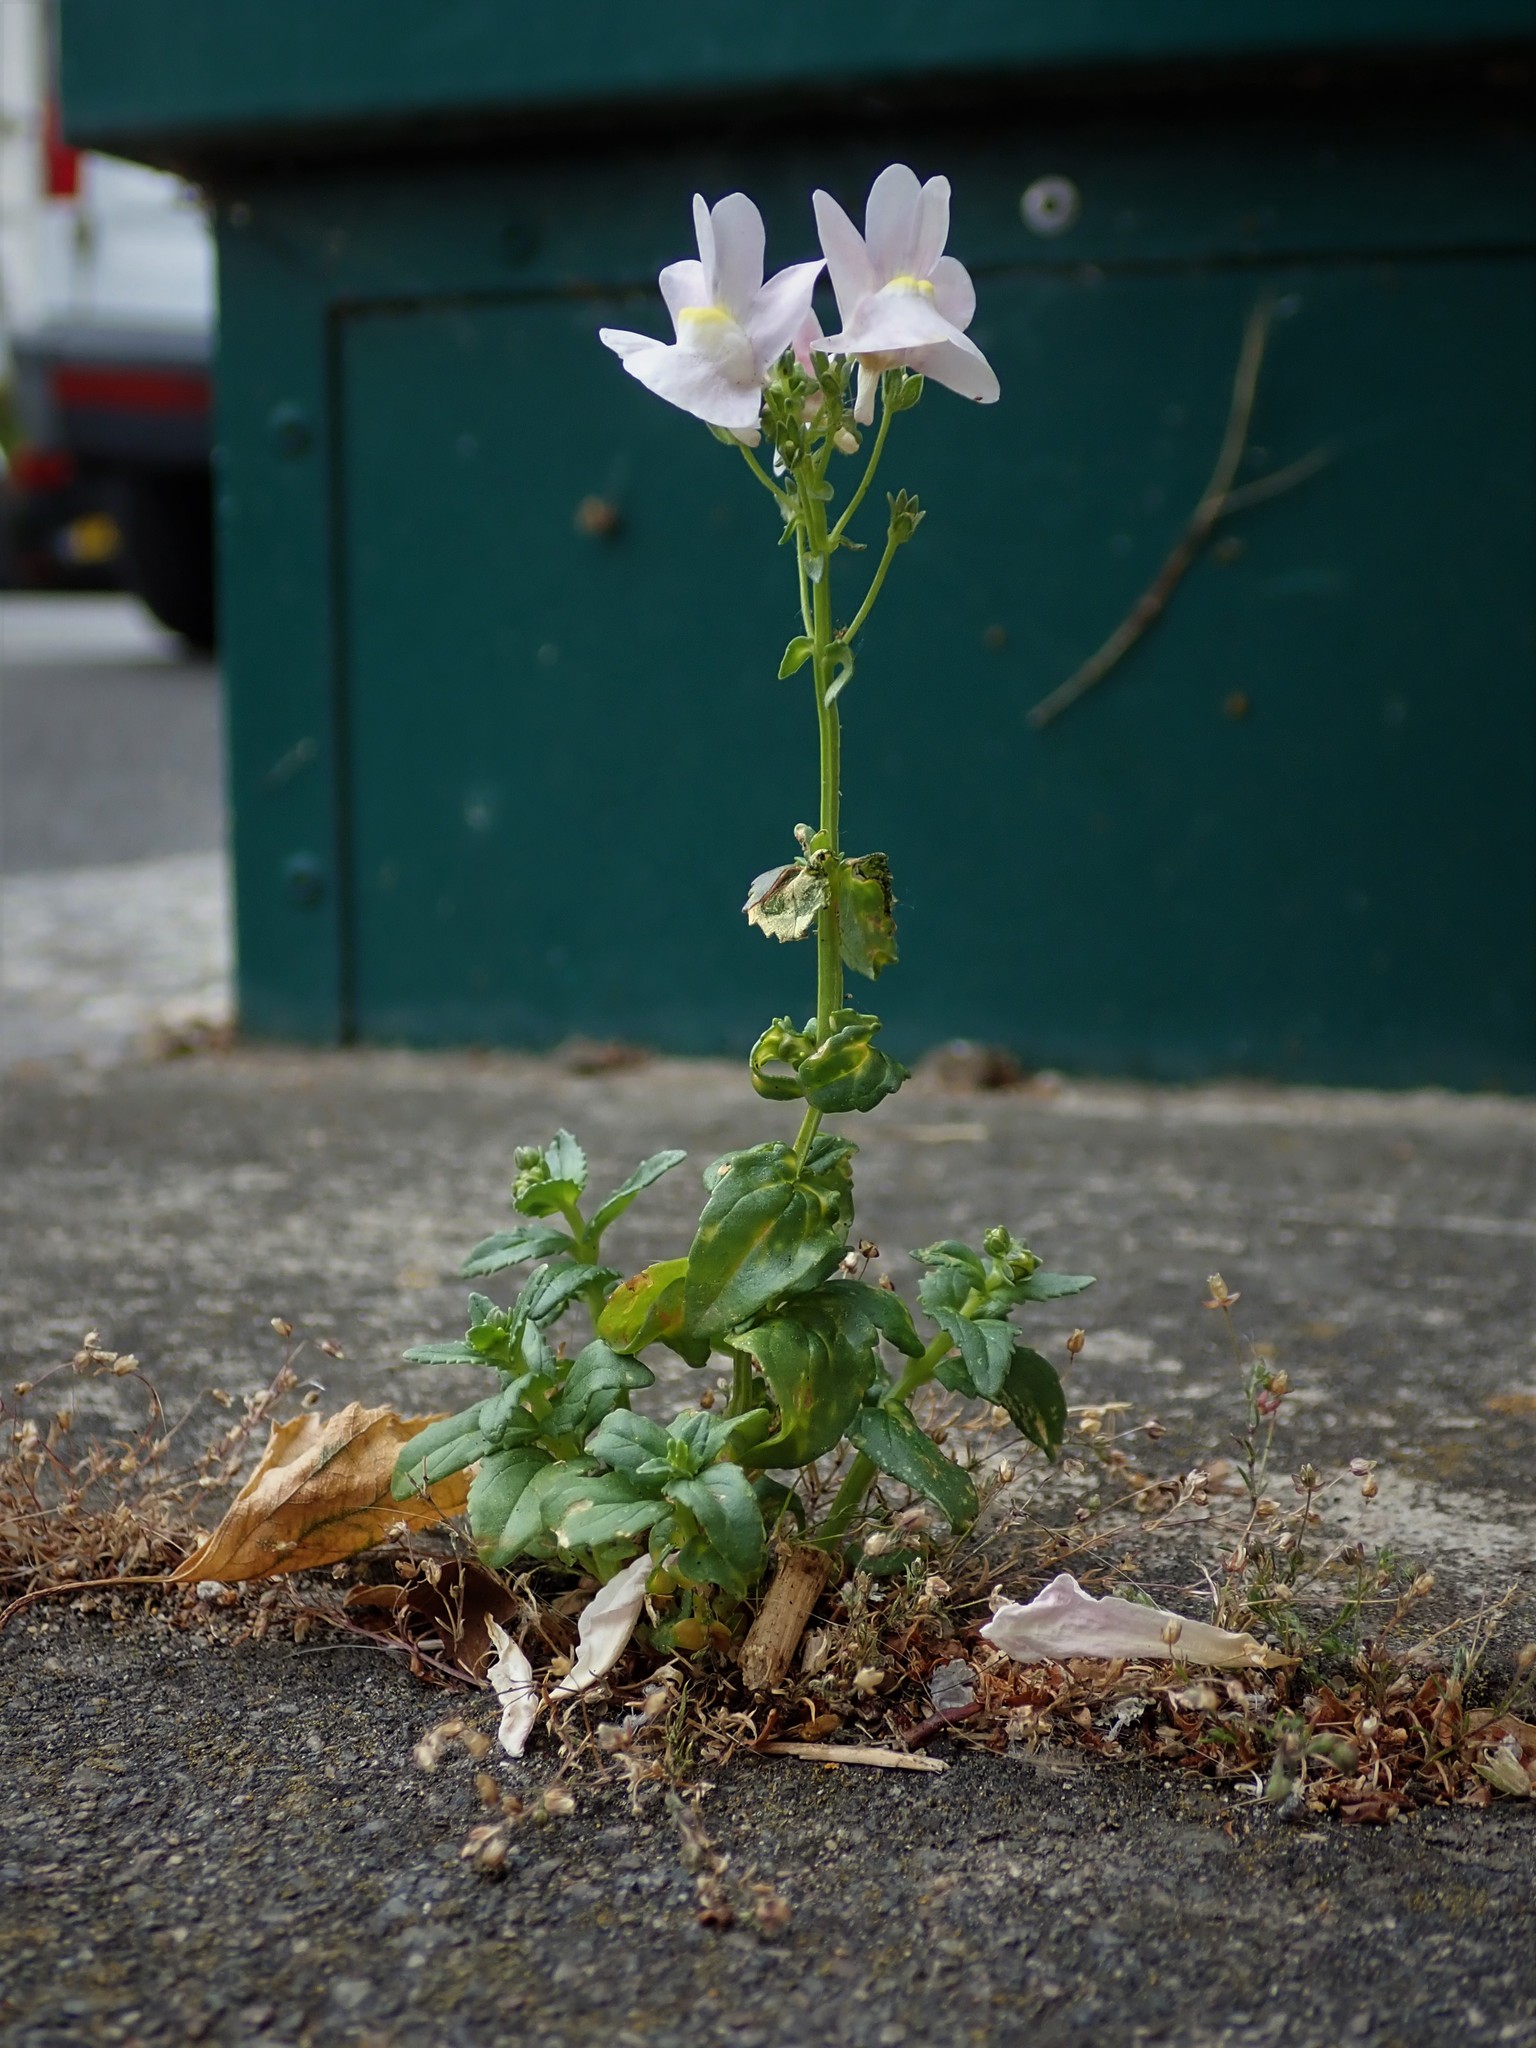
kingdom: Plantae
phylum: Tracheophyta
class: Magnoliopsida
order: Lamiales
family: Scrophulariaceae
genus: Nemesia
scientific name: Nemesia fruticans
